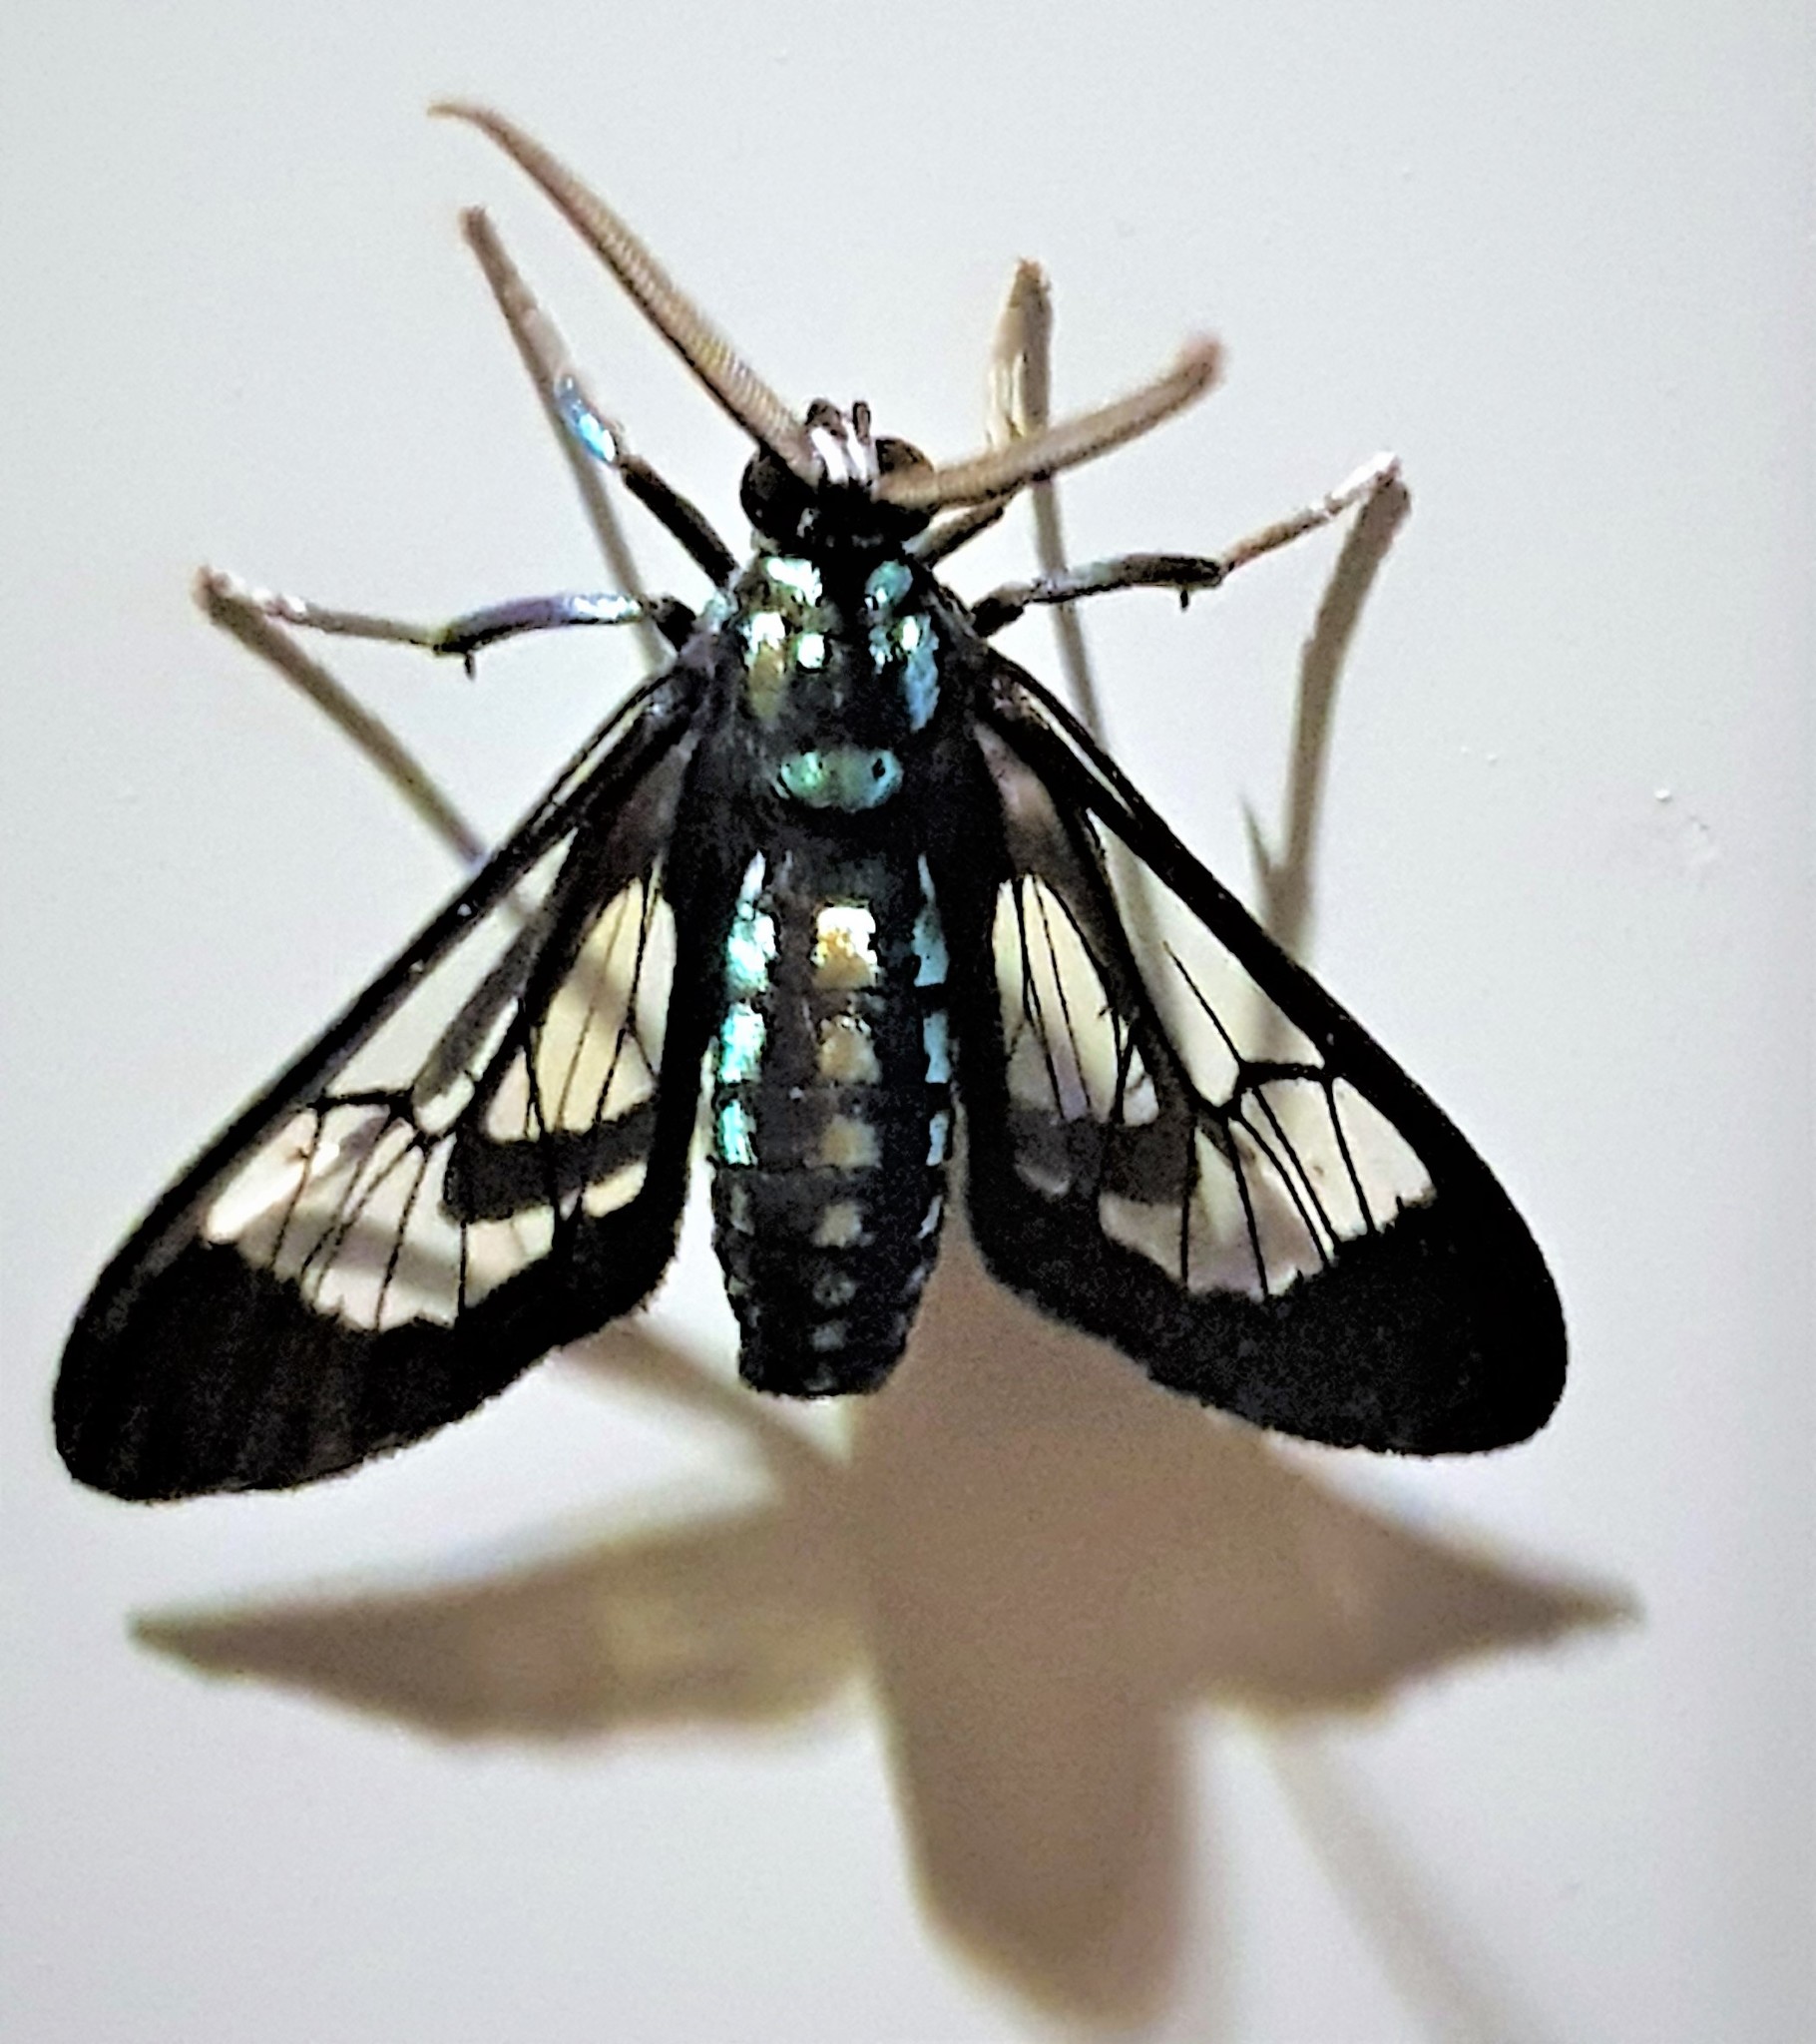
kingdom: Animalia
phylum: Arthropoda
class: Insecta
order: Lepidoptera
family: Erebidae
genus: Cosmosoma
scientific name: Cosmosoma metallescens
